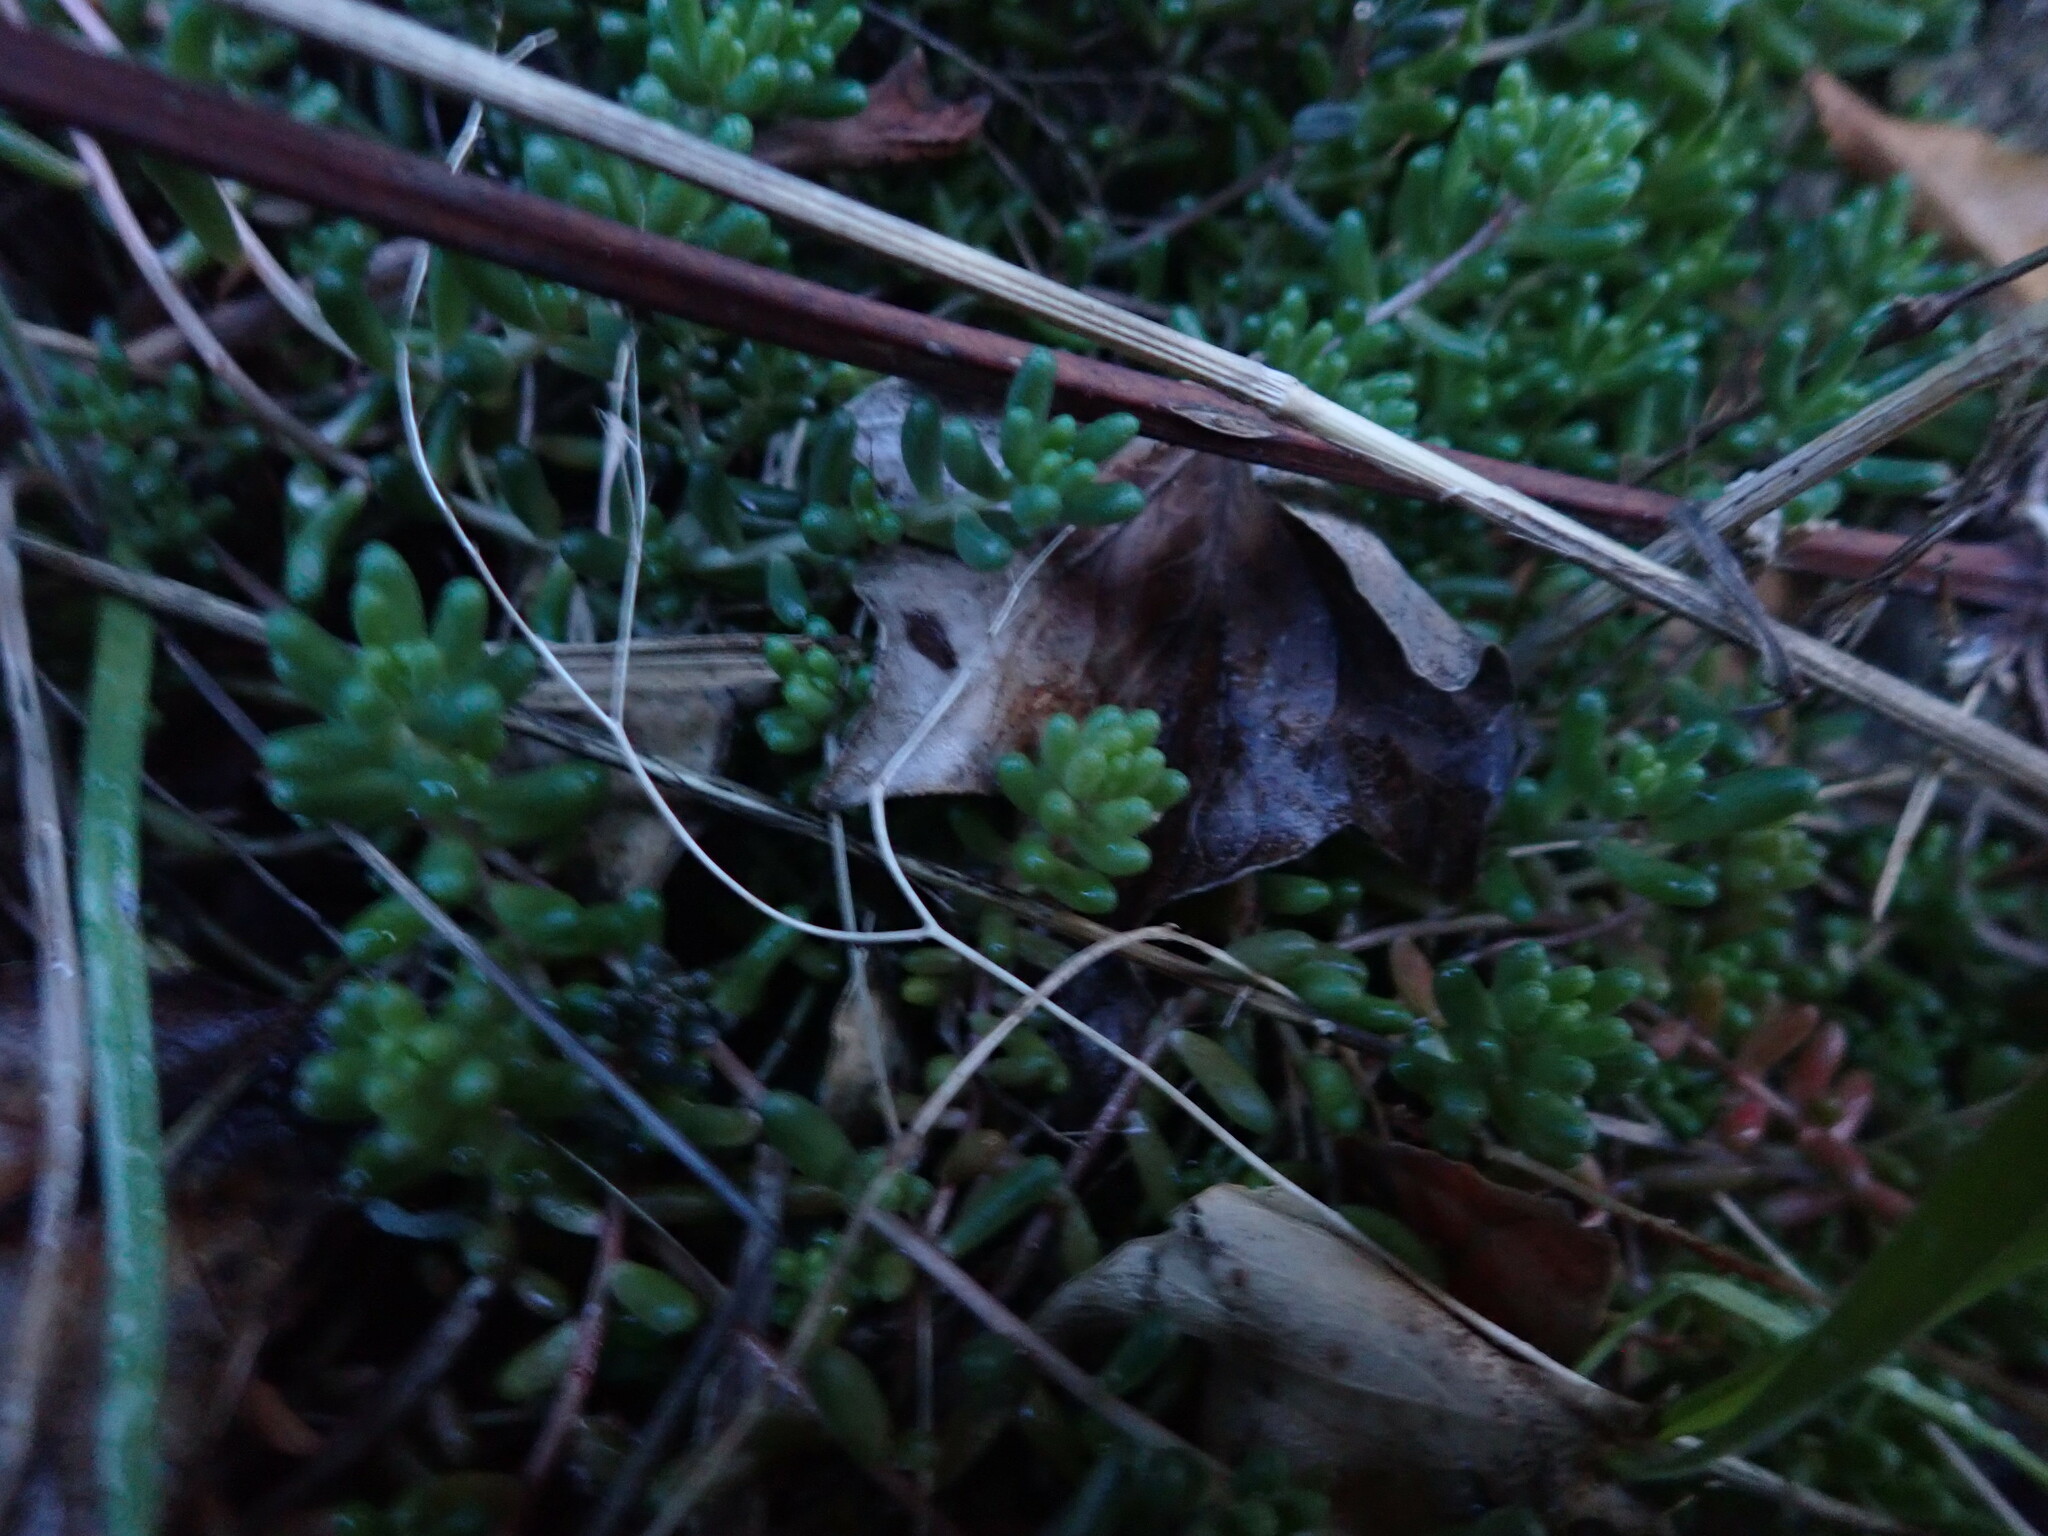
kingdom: Plantae
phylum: Tracheophyta
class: Magnoliopsida
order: Saxifragales
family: Crassulaceae
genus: Sedum
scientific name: Sedum album
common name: White stonecrop
